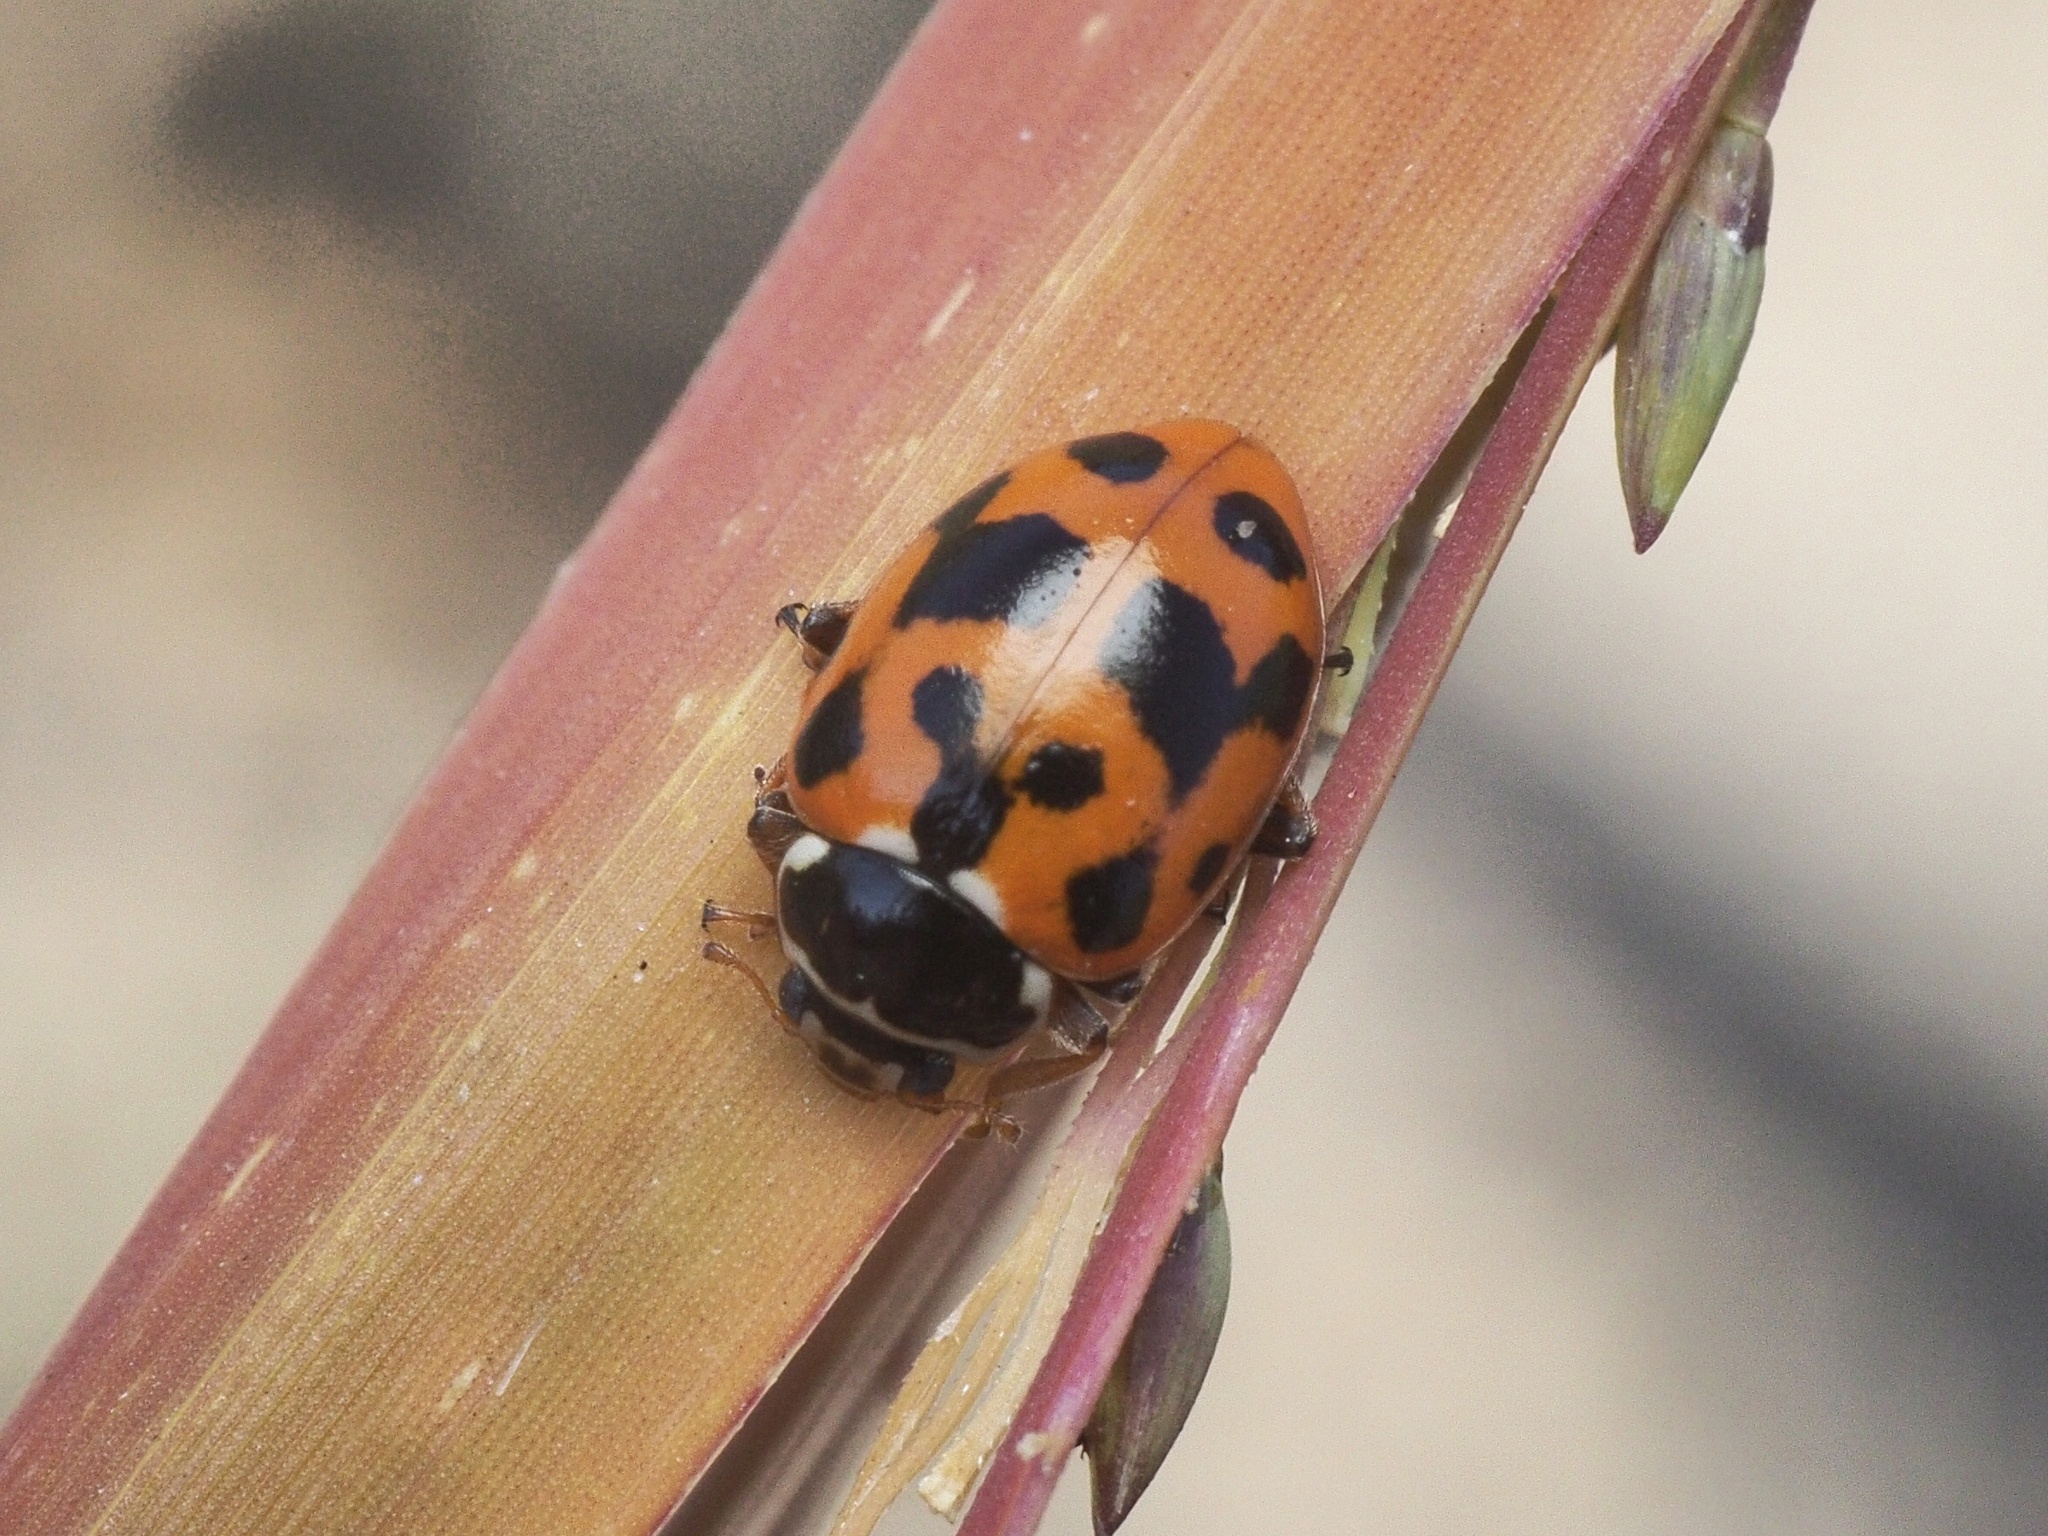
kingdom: Animalia
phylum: Arthropoda
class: Insecta
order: Coleoptera
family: Coccinellidae
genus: Hippodamia
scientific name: Hippodamia variegata
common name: Ladybird beetle
